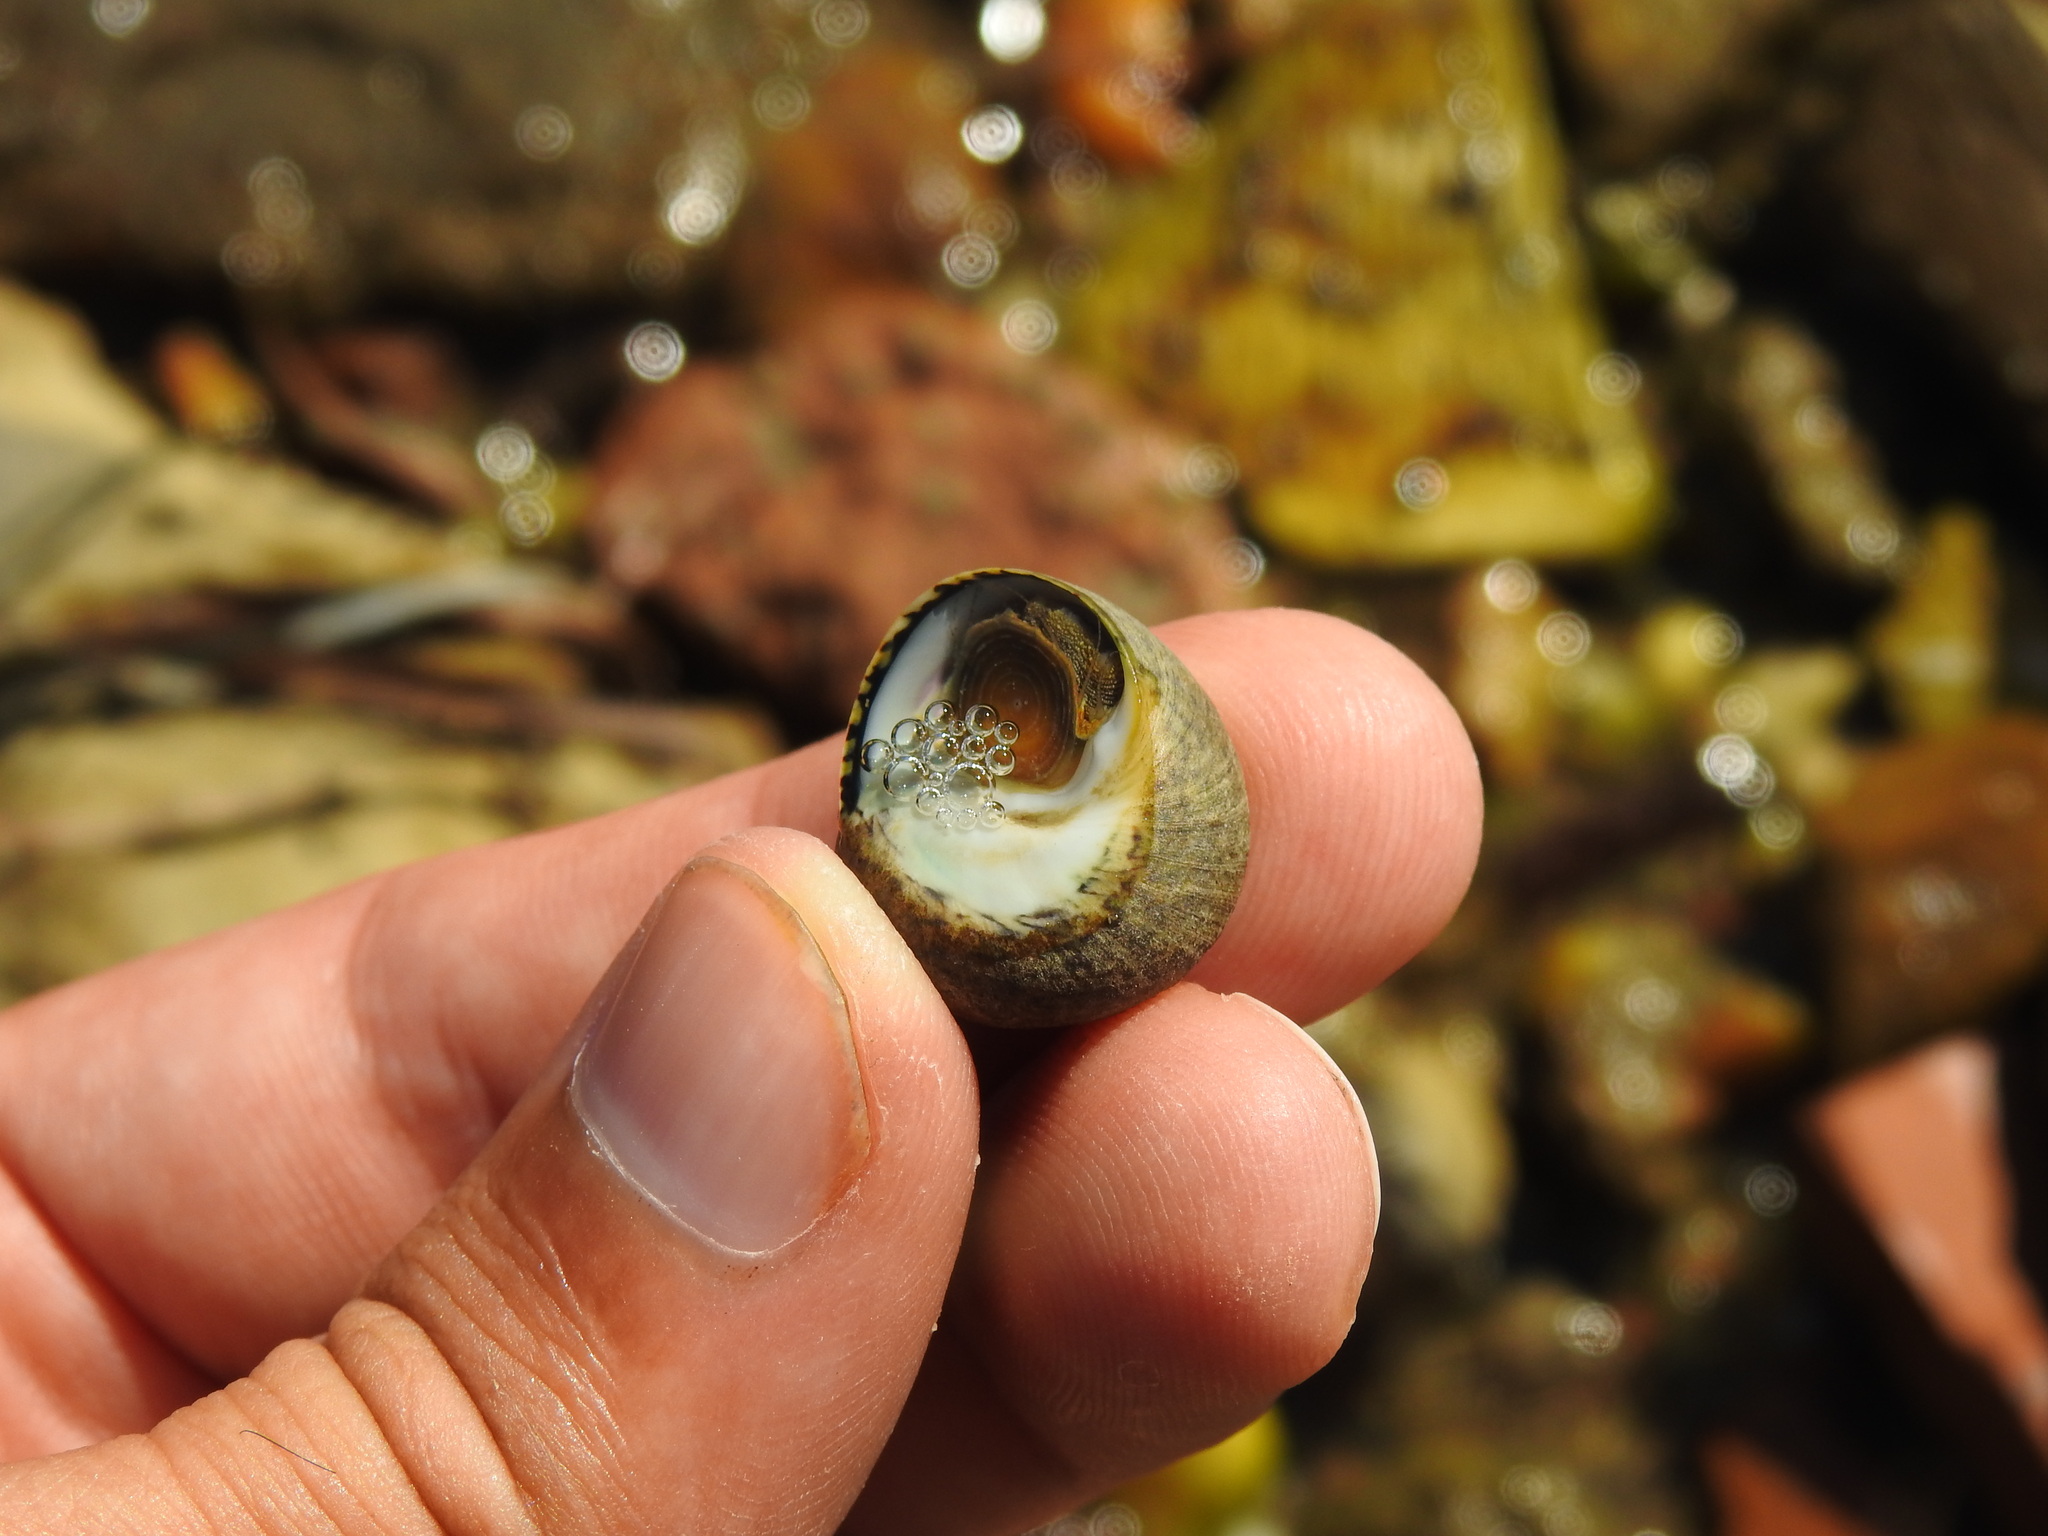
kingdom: Animalia
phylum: Mollusca
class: Gastropoda
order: Trochida
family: Trochidae
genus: Phorcus
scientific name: Phorcus lineatus
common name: Toothed top shell
